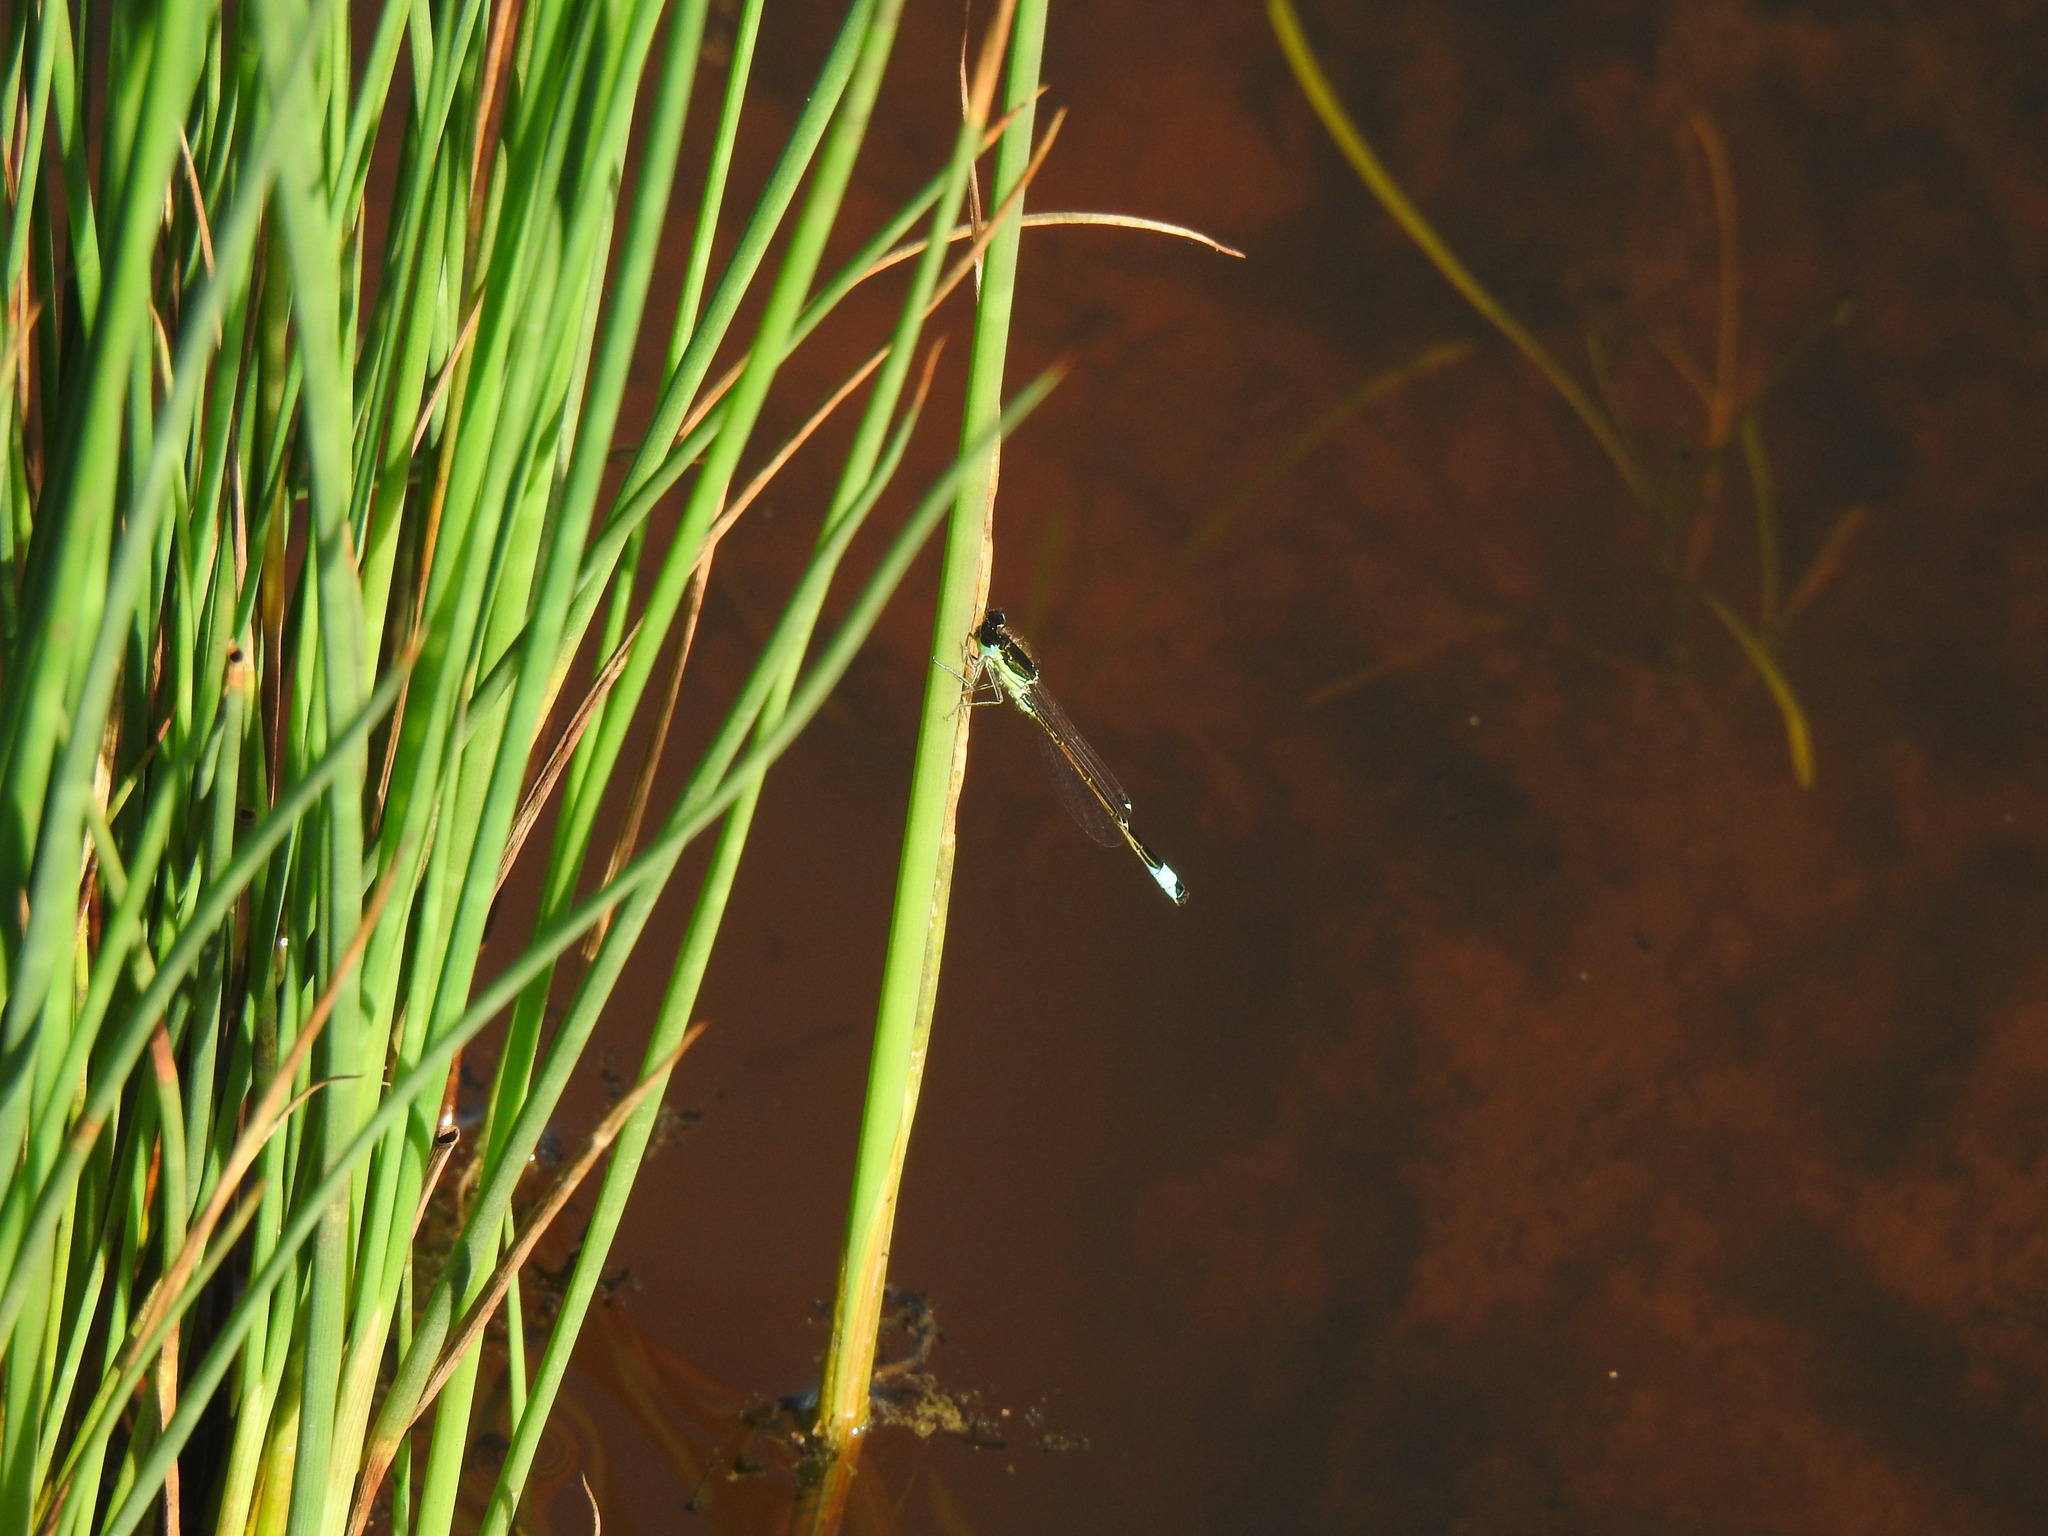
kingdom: Animalia
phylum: Arthropoda
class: Insecta
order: Odonata
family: Coenagrionidae
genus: Ischnura
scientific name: Ischnura graellsii
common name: Iberian bluetail
